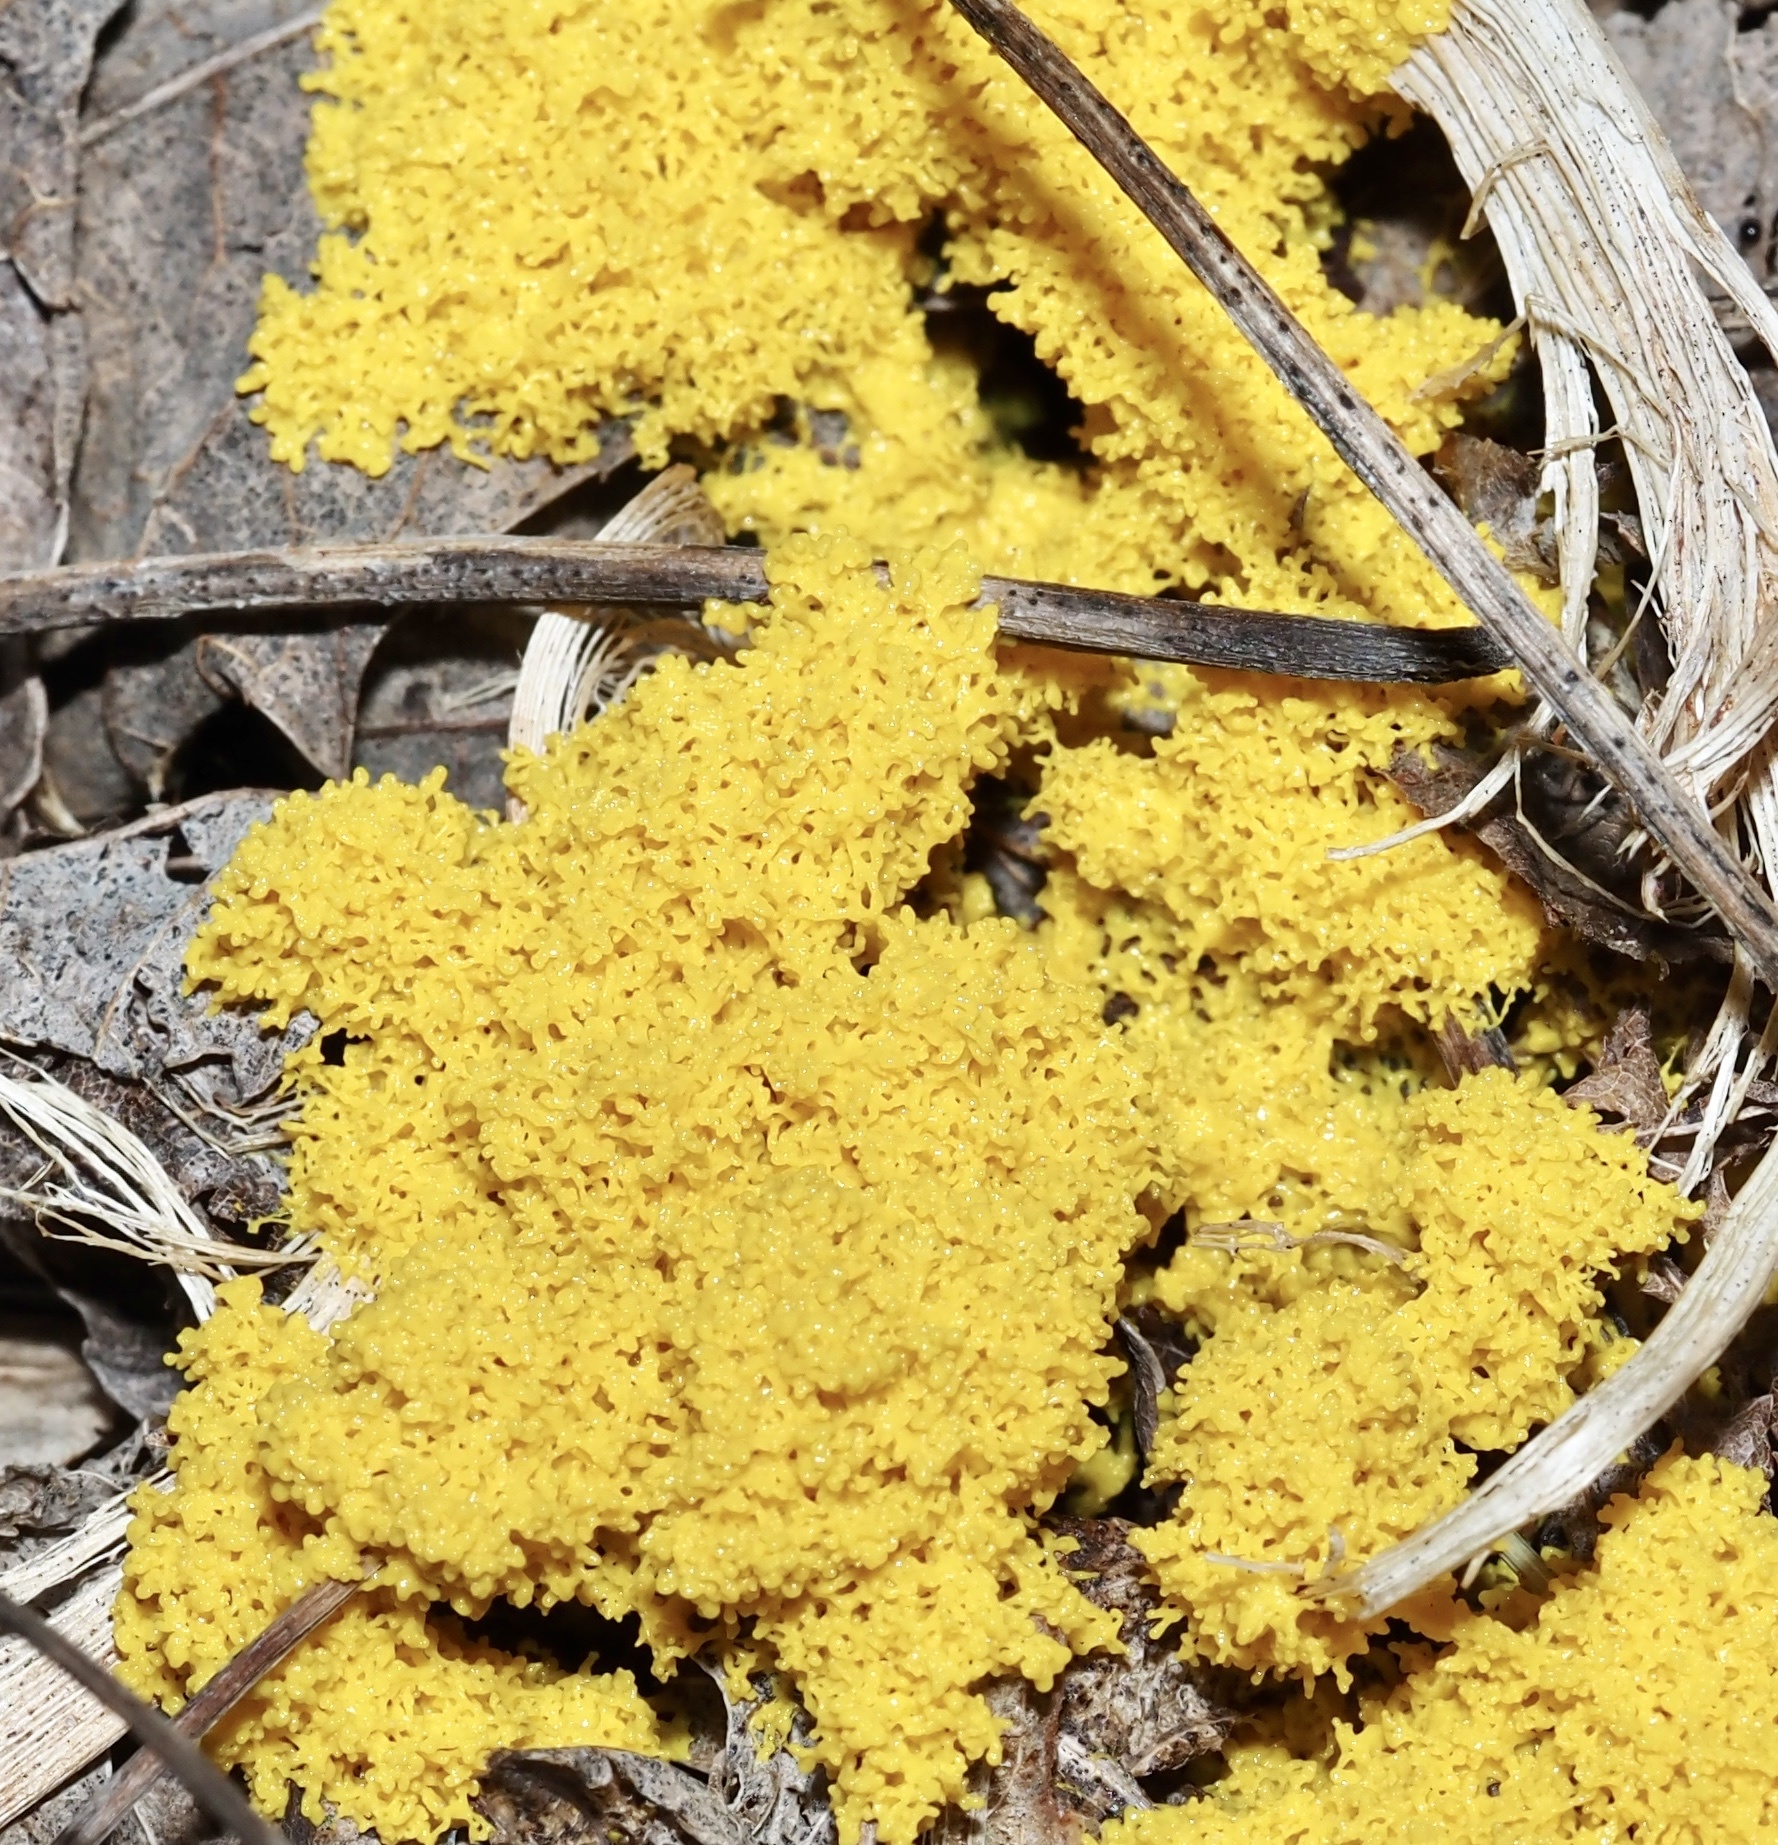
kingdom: Protozoa
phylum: Mycetozoa
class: Myxomycetes
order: Physarales
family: Physaraceae
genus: Fuligo
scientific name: Fuligo septica
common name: Dog vomit slime mold
